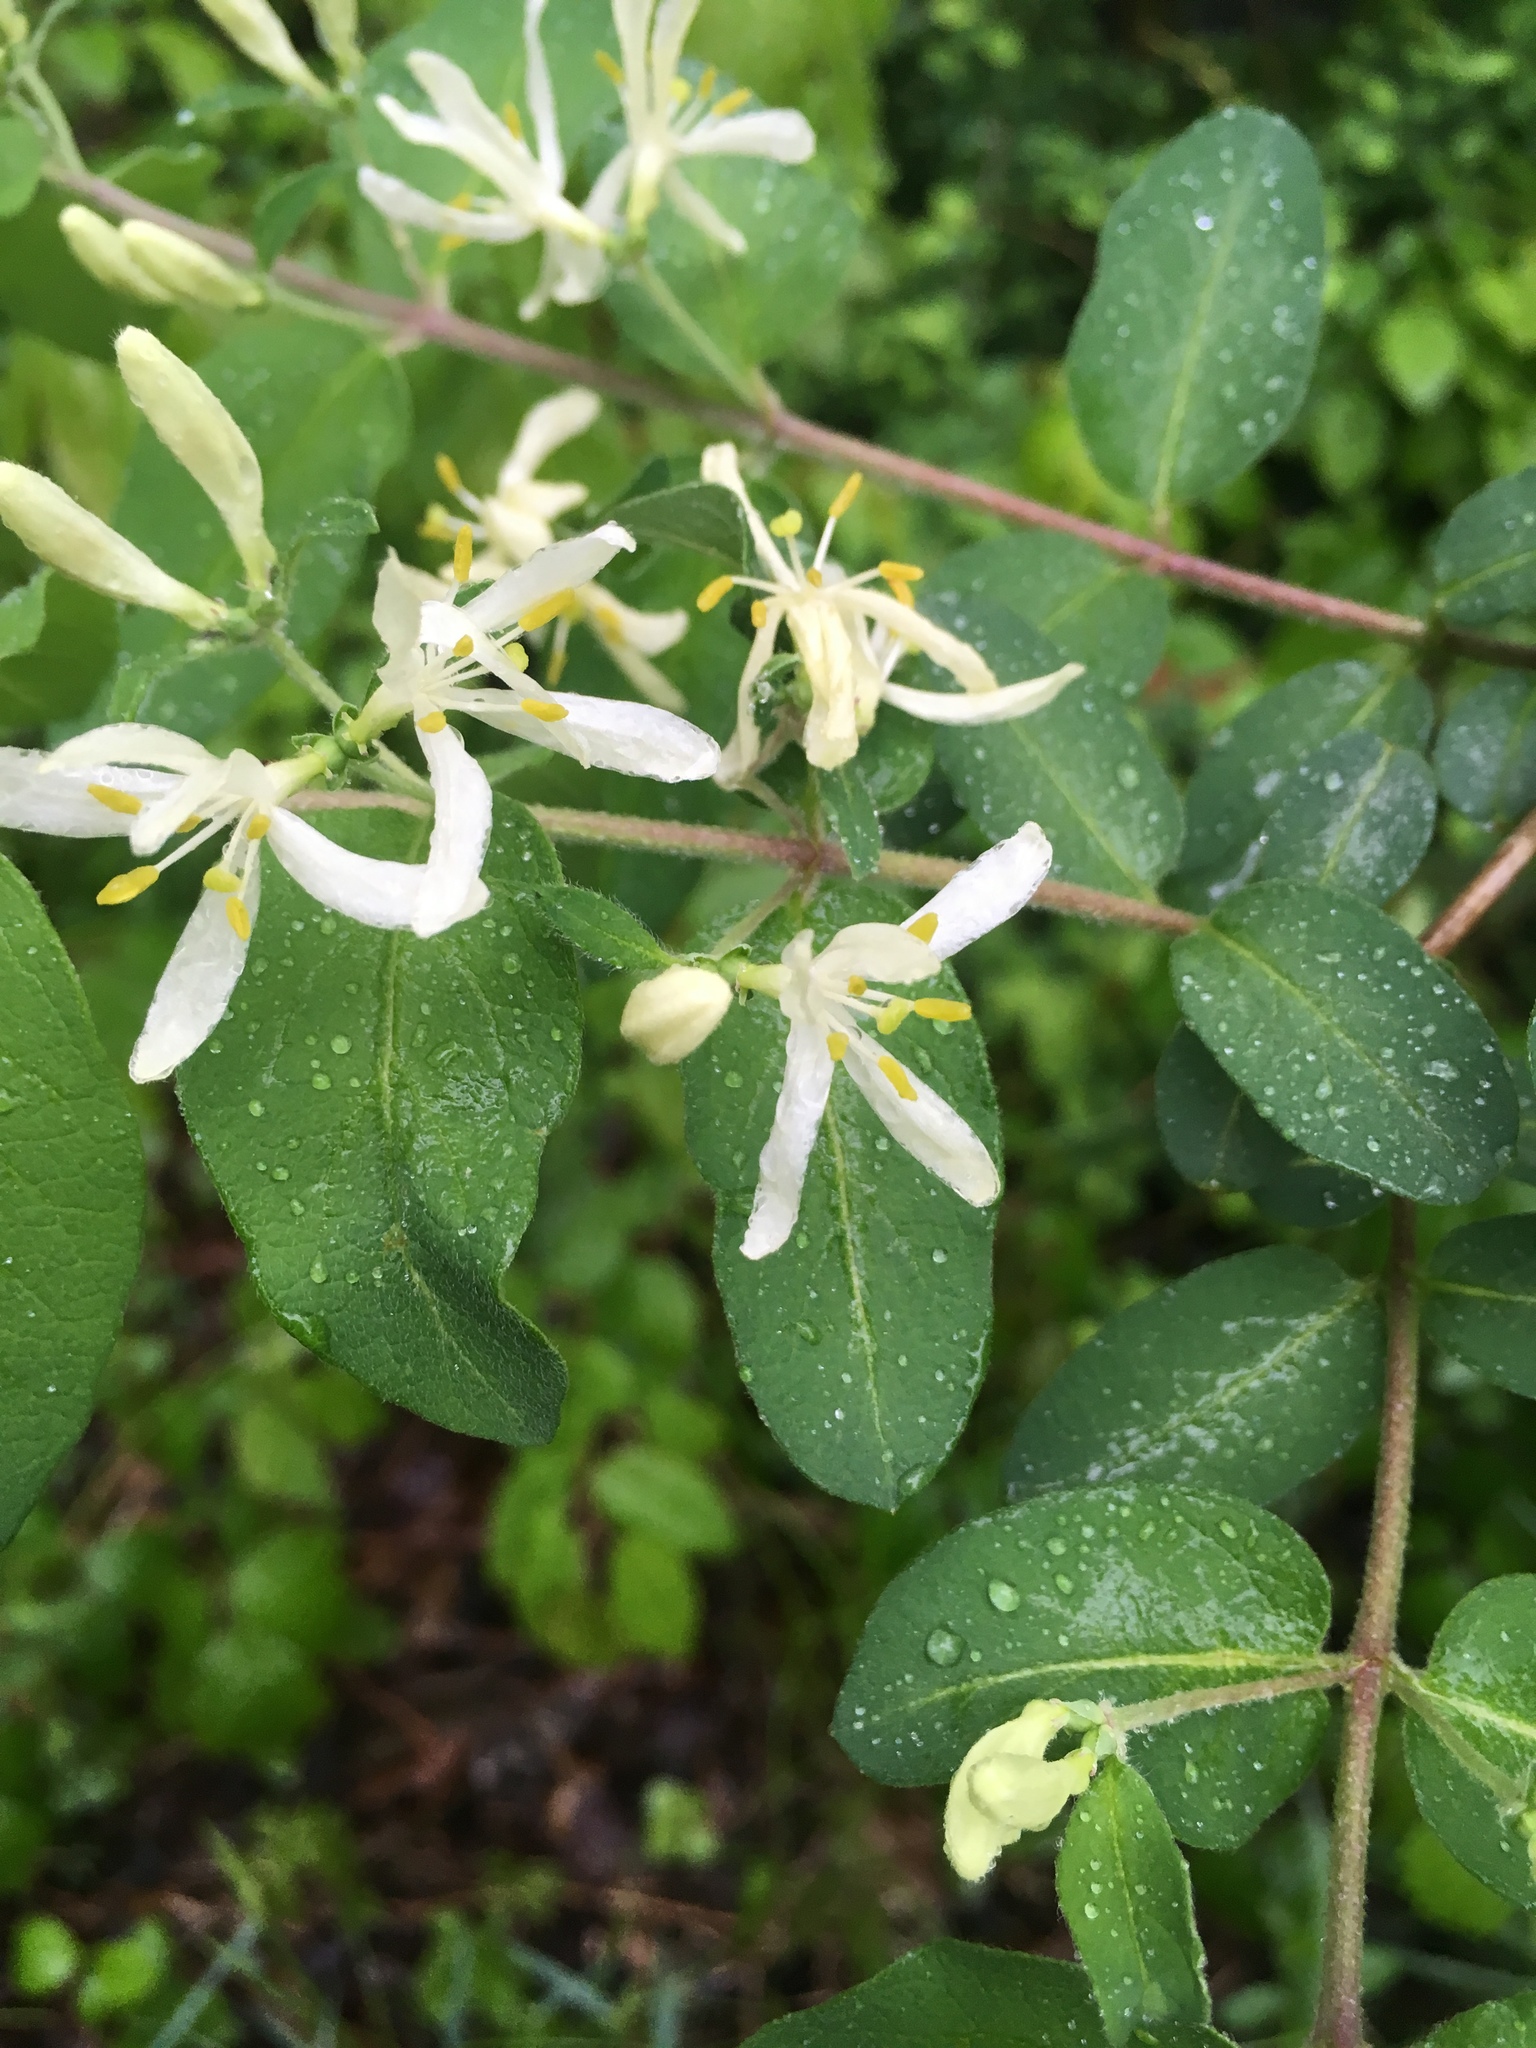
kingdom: Plantae
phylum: Tracheophyta
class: Magnoliopsida
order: Dipsacales
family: Caprifoliaceae
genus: Lonicera
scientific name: Lonicera
